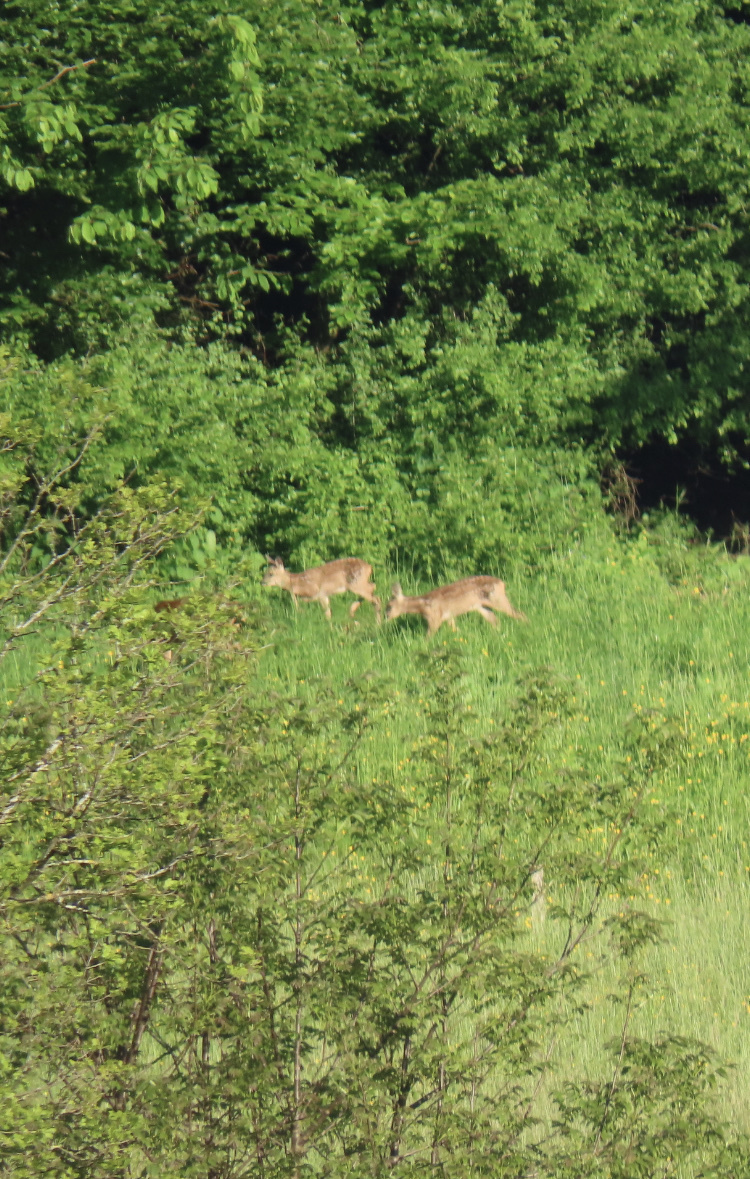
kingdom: Animalia
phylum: Chordata
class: Mammalia
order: Artiodactyla
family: Cervidae
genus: Capreolus
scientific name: Capreolus capreolus
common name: Western roe deer
